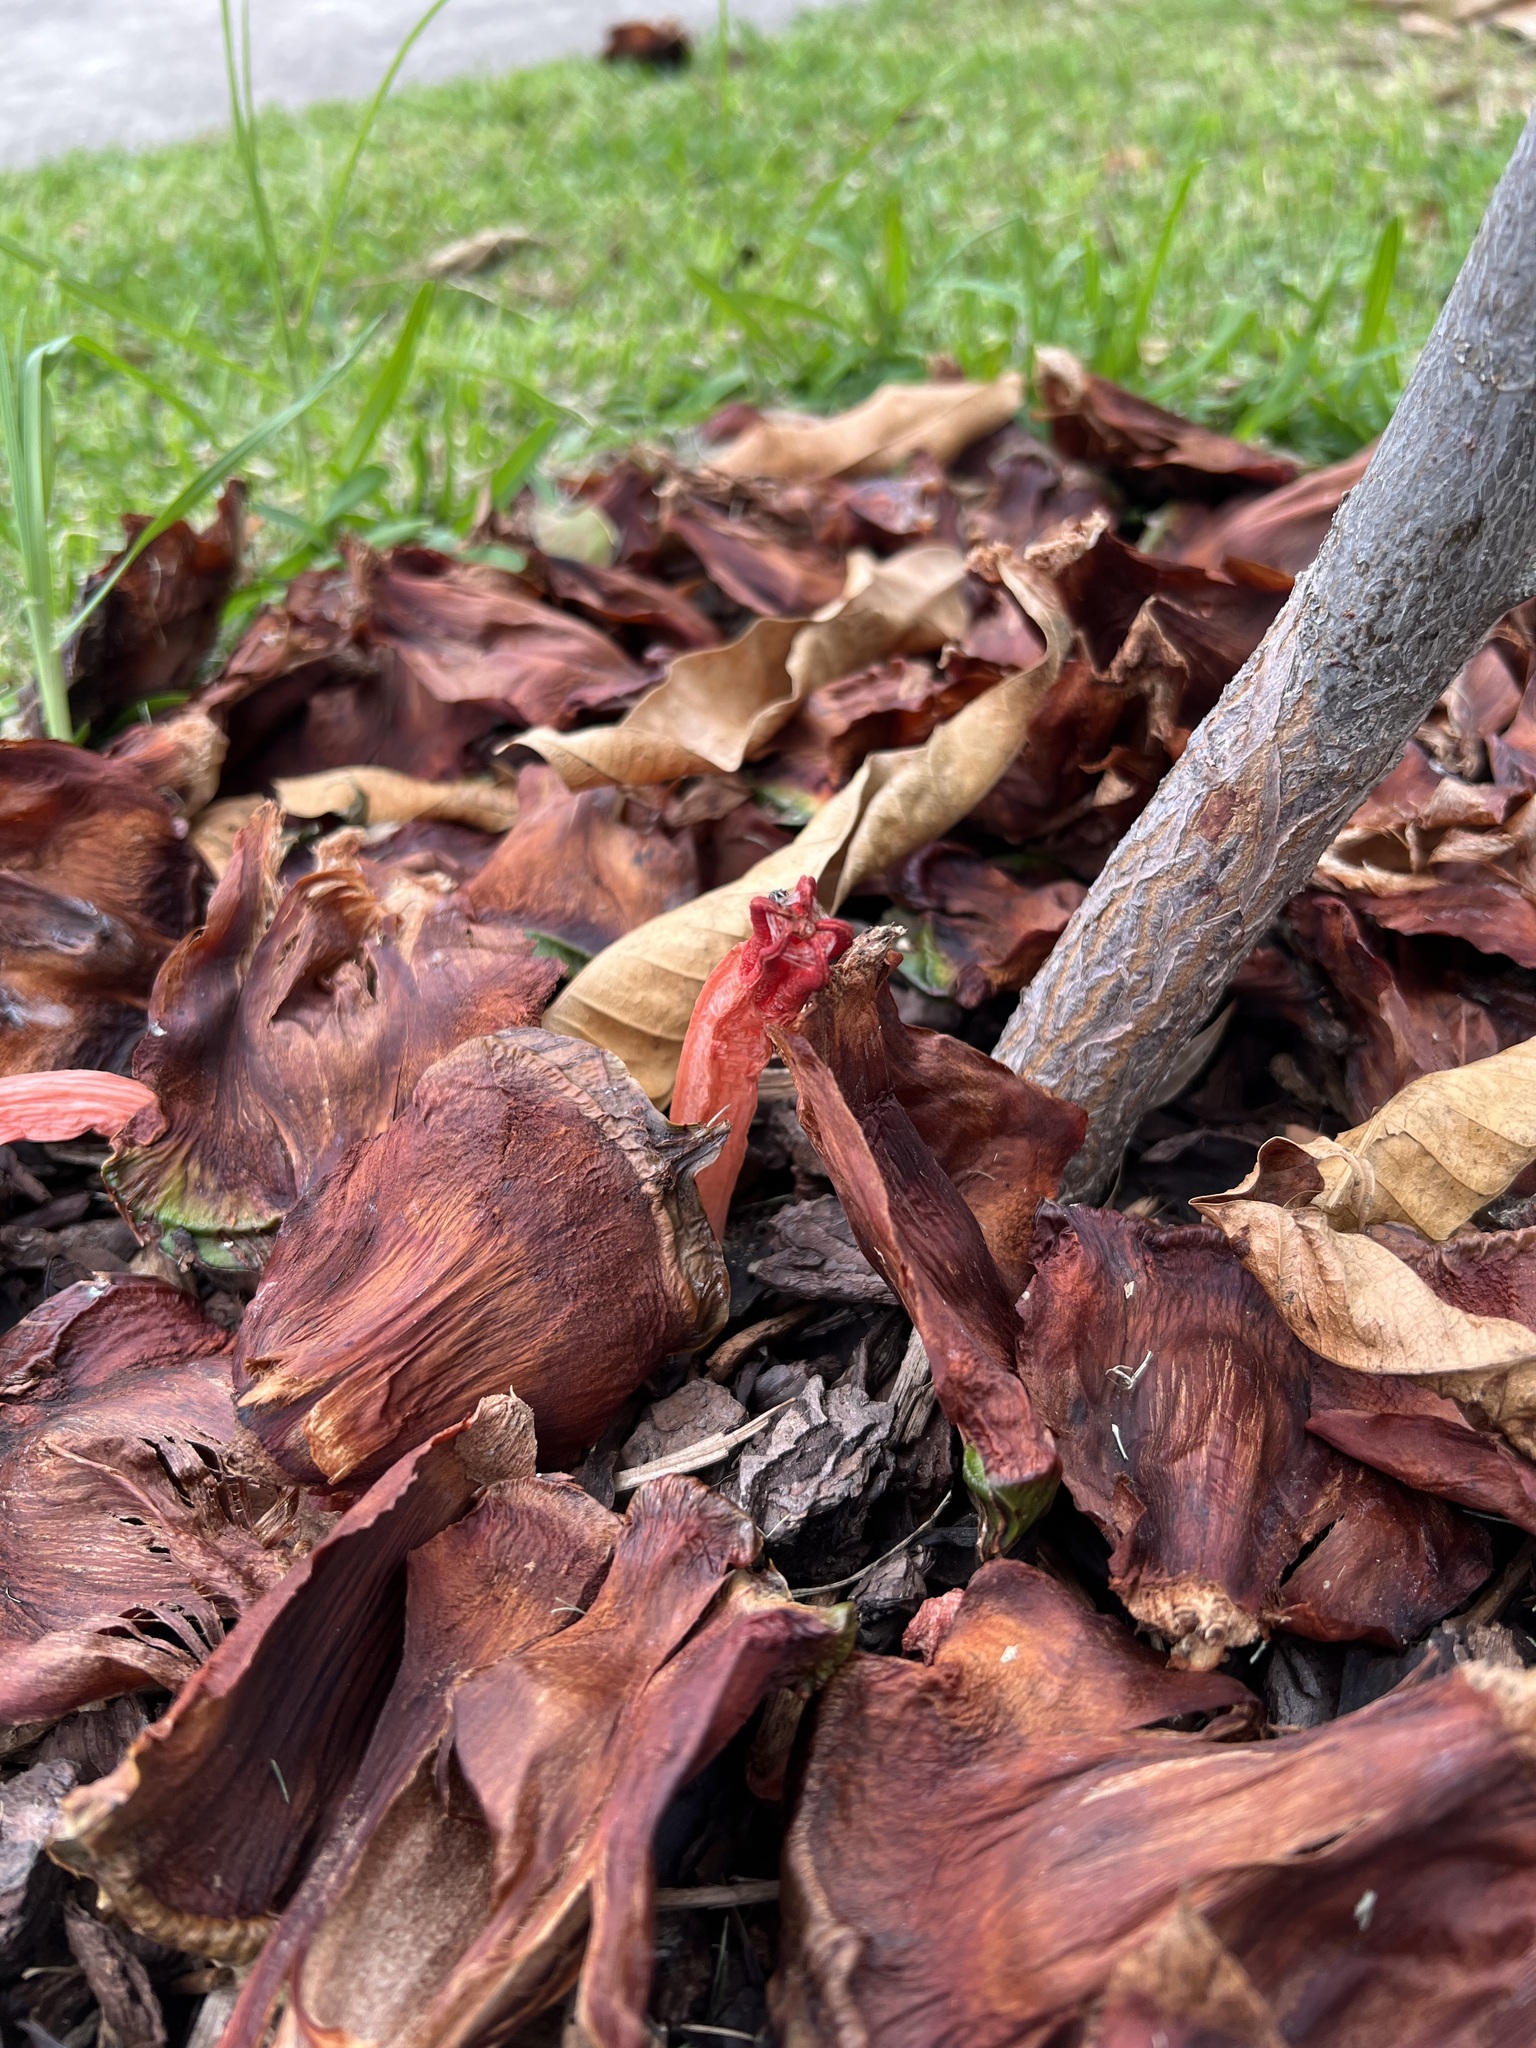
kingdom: Fungi
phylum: Basidiomycota
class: Agaricomycetes
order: Phallales
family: Phallaceae
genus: Lysurus
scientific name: Lysurus mokusin
